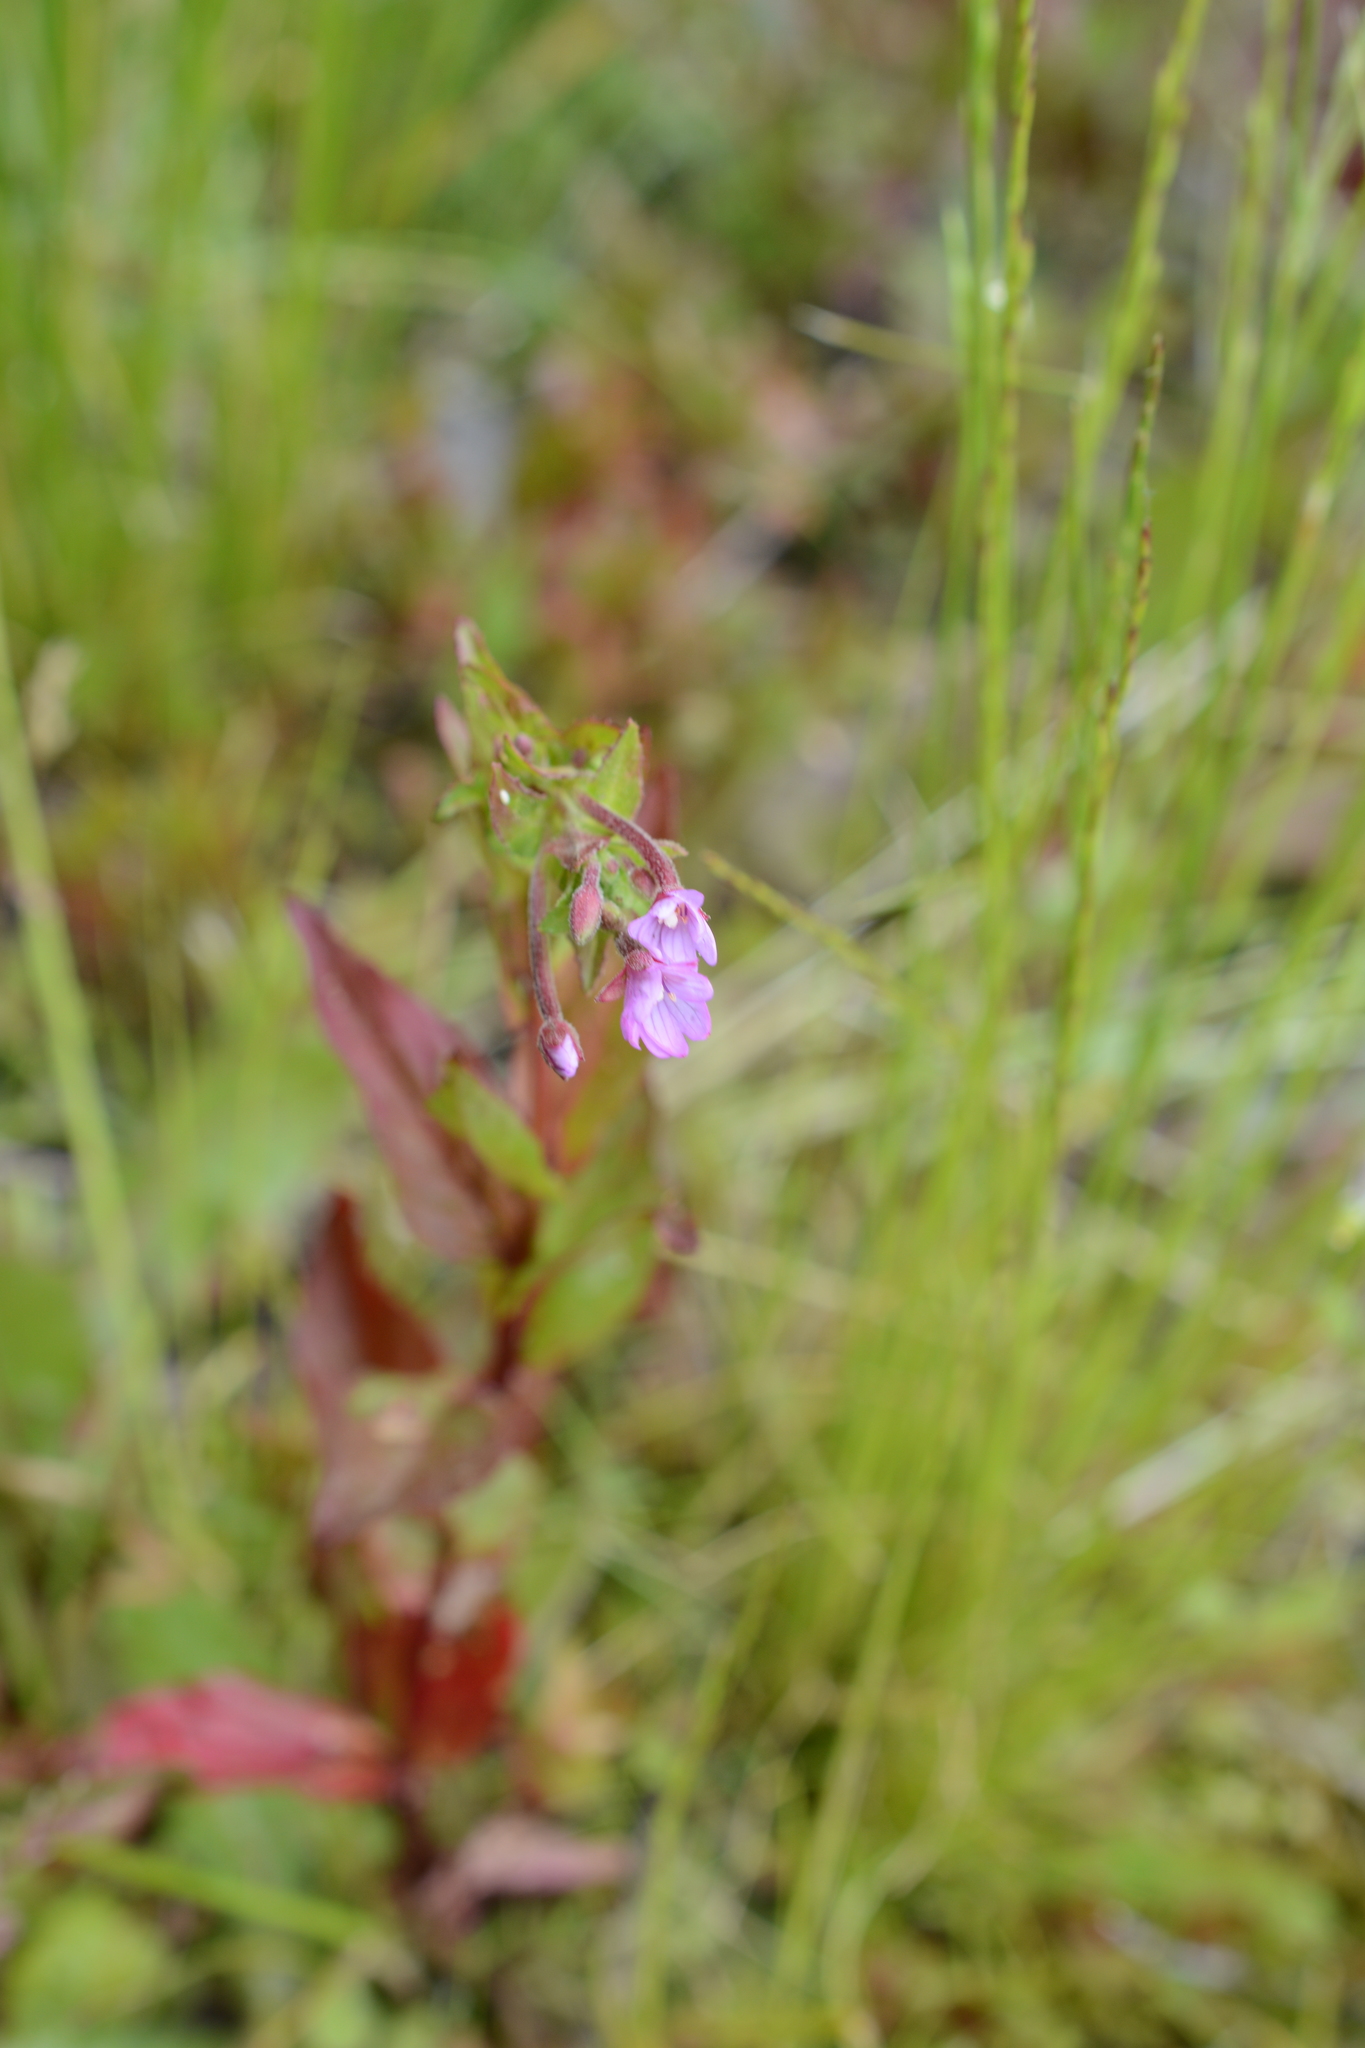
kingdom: Plantae
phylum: Tracheophyta
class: Magnoliopsida
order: Myrtales
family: Onagraceae
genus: Epilobium
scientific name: Epilobium ciliatum
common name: American willowherb
